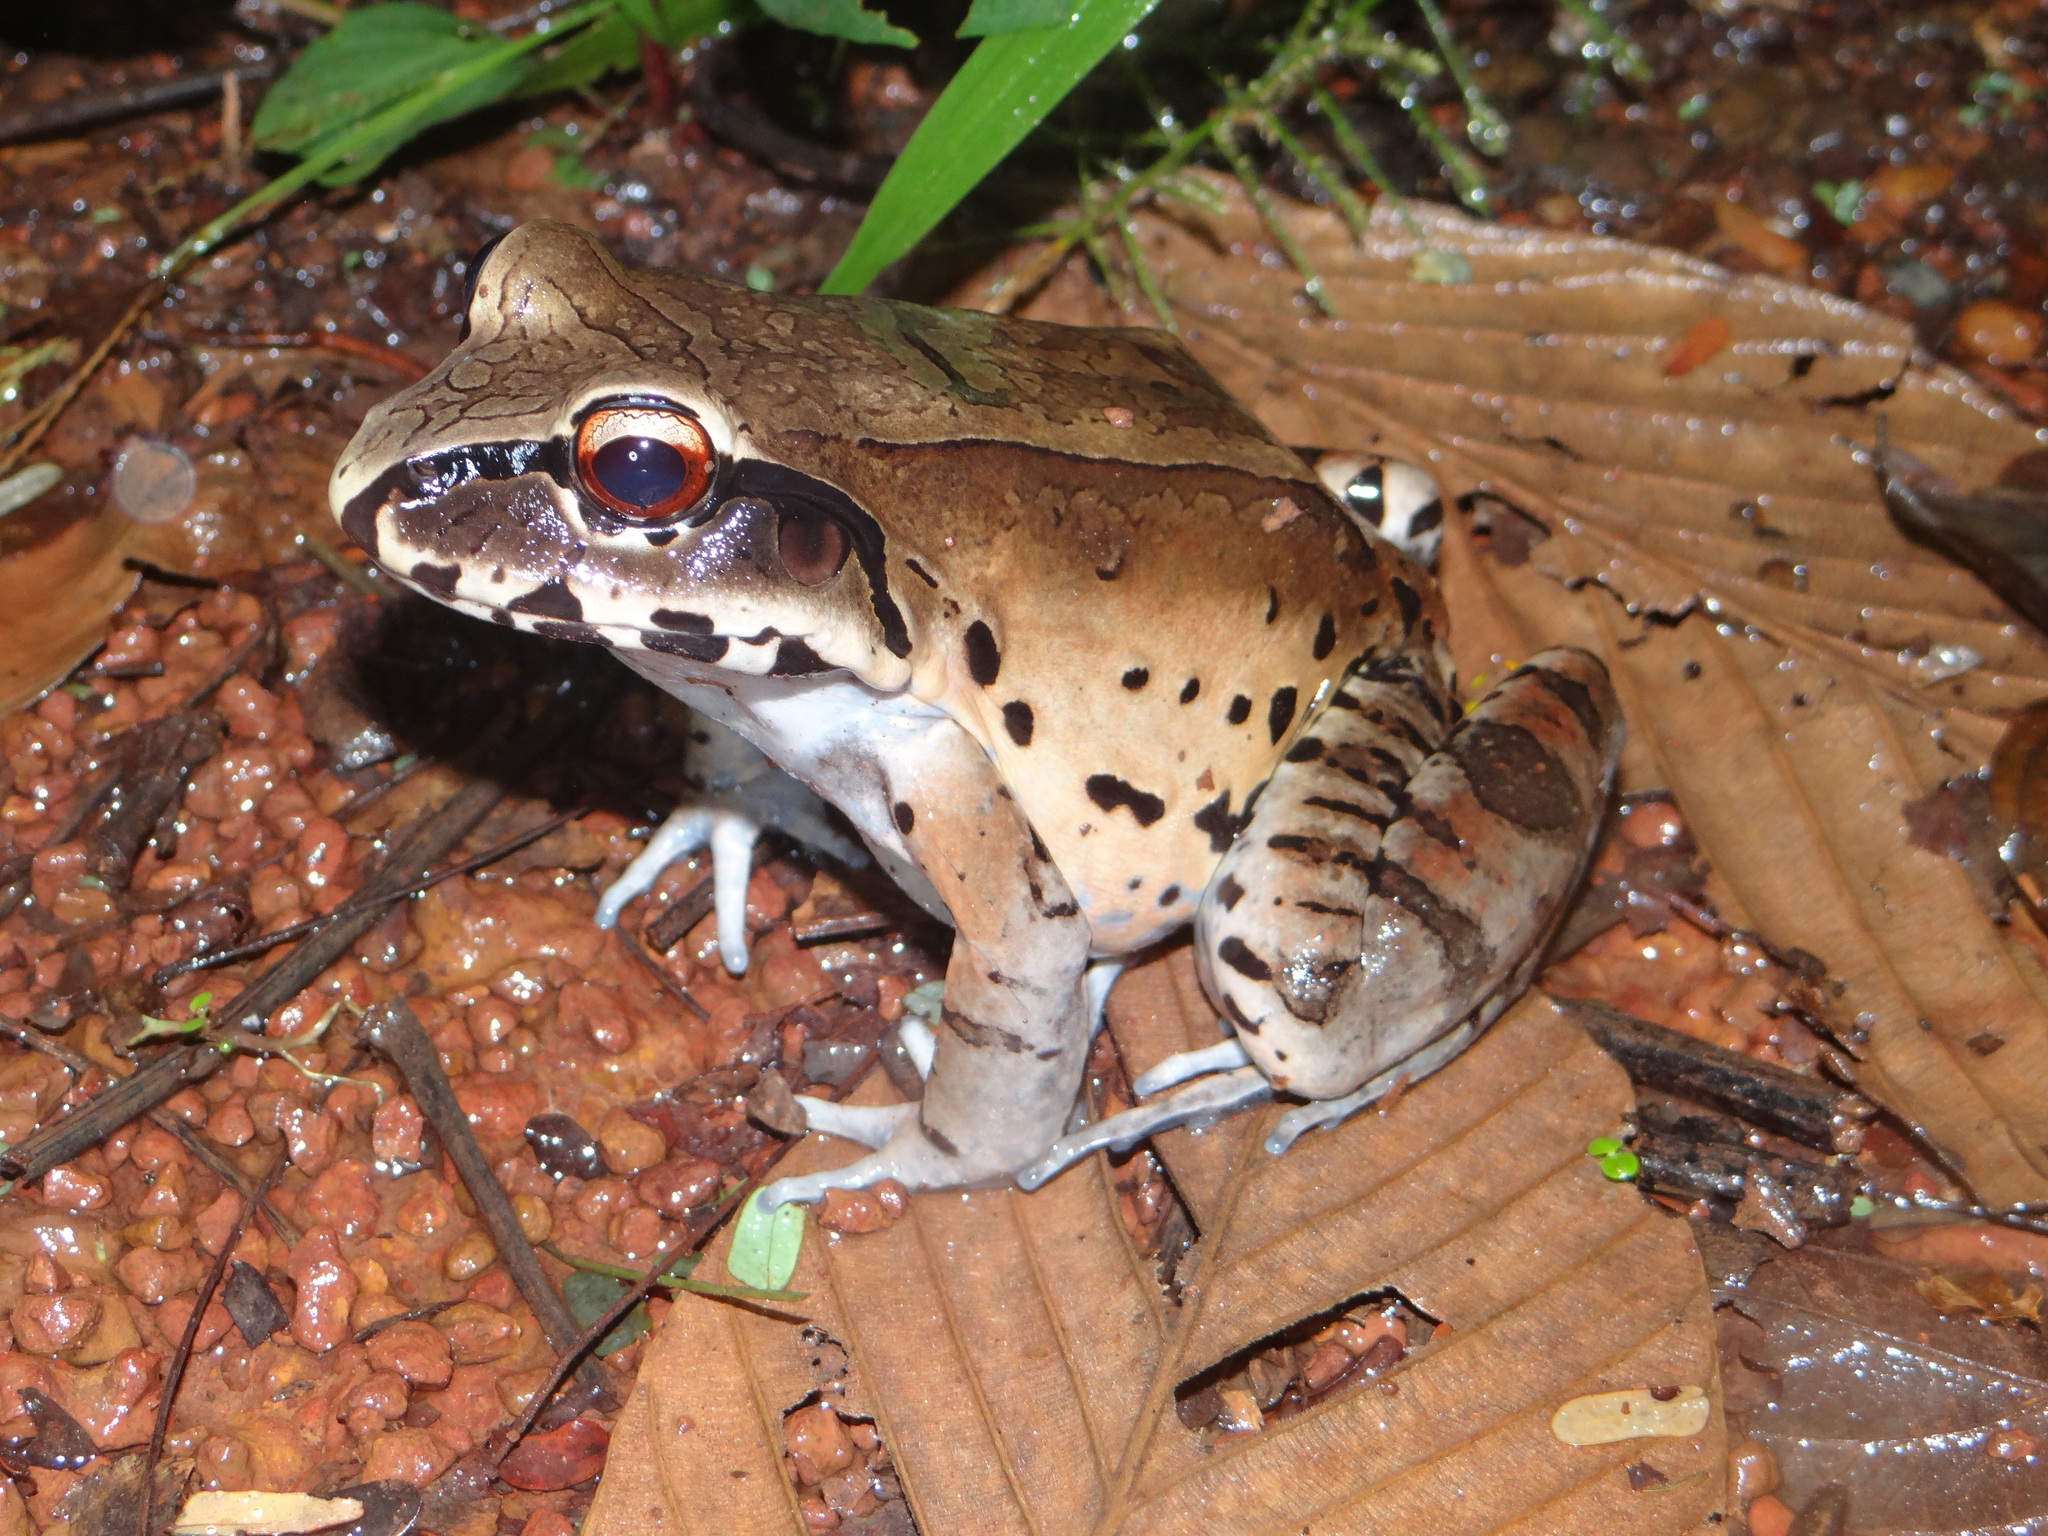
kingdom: Animalia
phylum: Chordata
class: Amphibia
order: Anura
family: Leptodactylidae
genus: Leptodactylus
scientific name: Leptodactylus pentadactylus
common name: Smoky jungle frog
